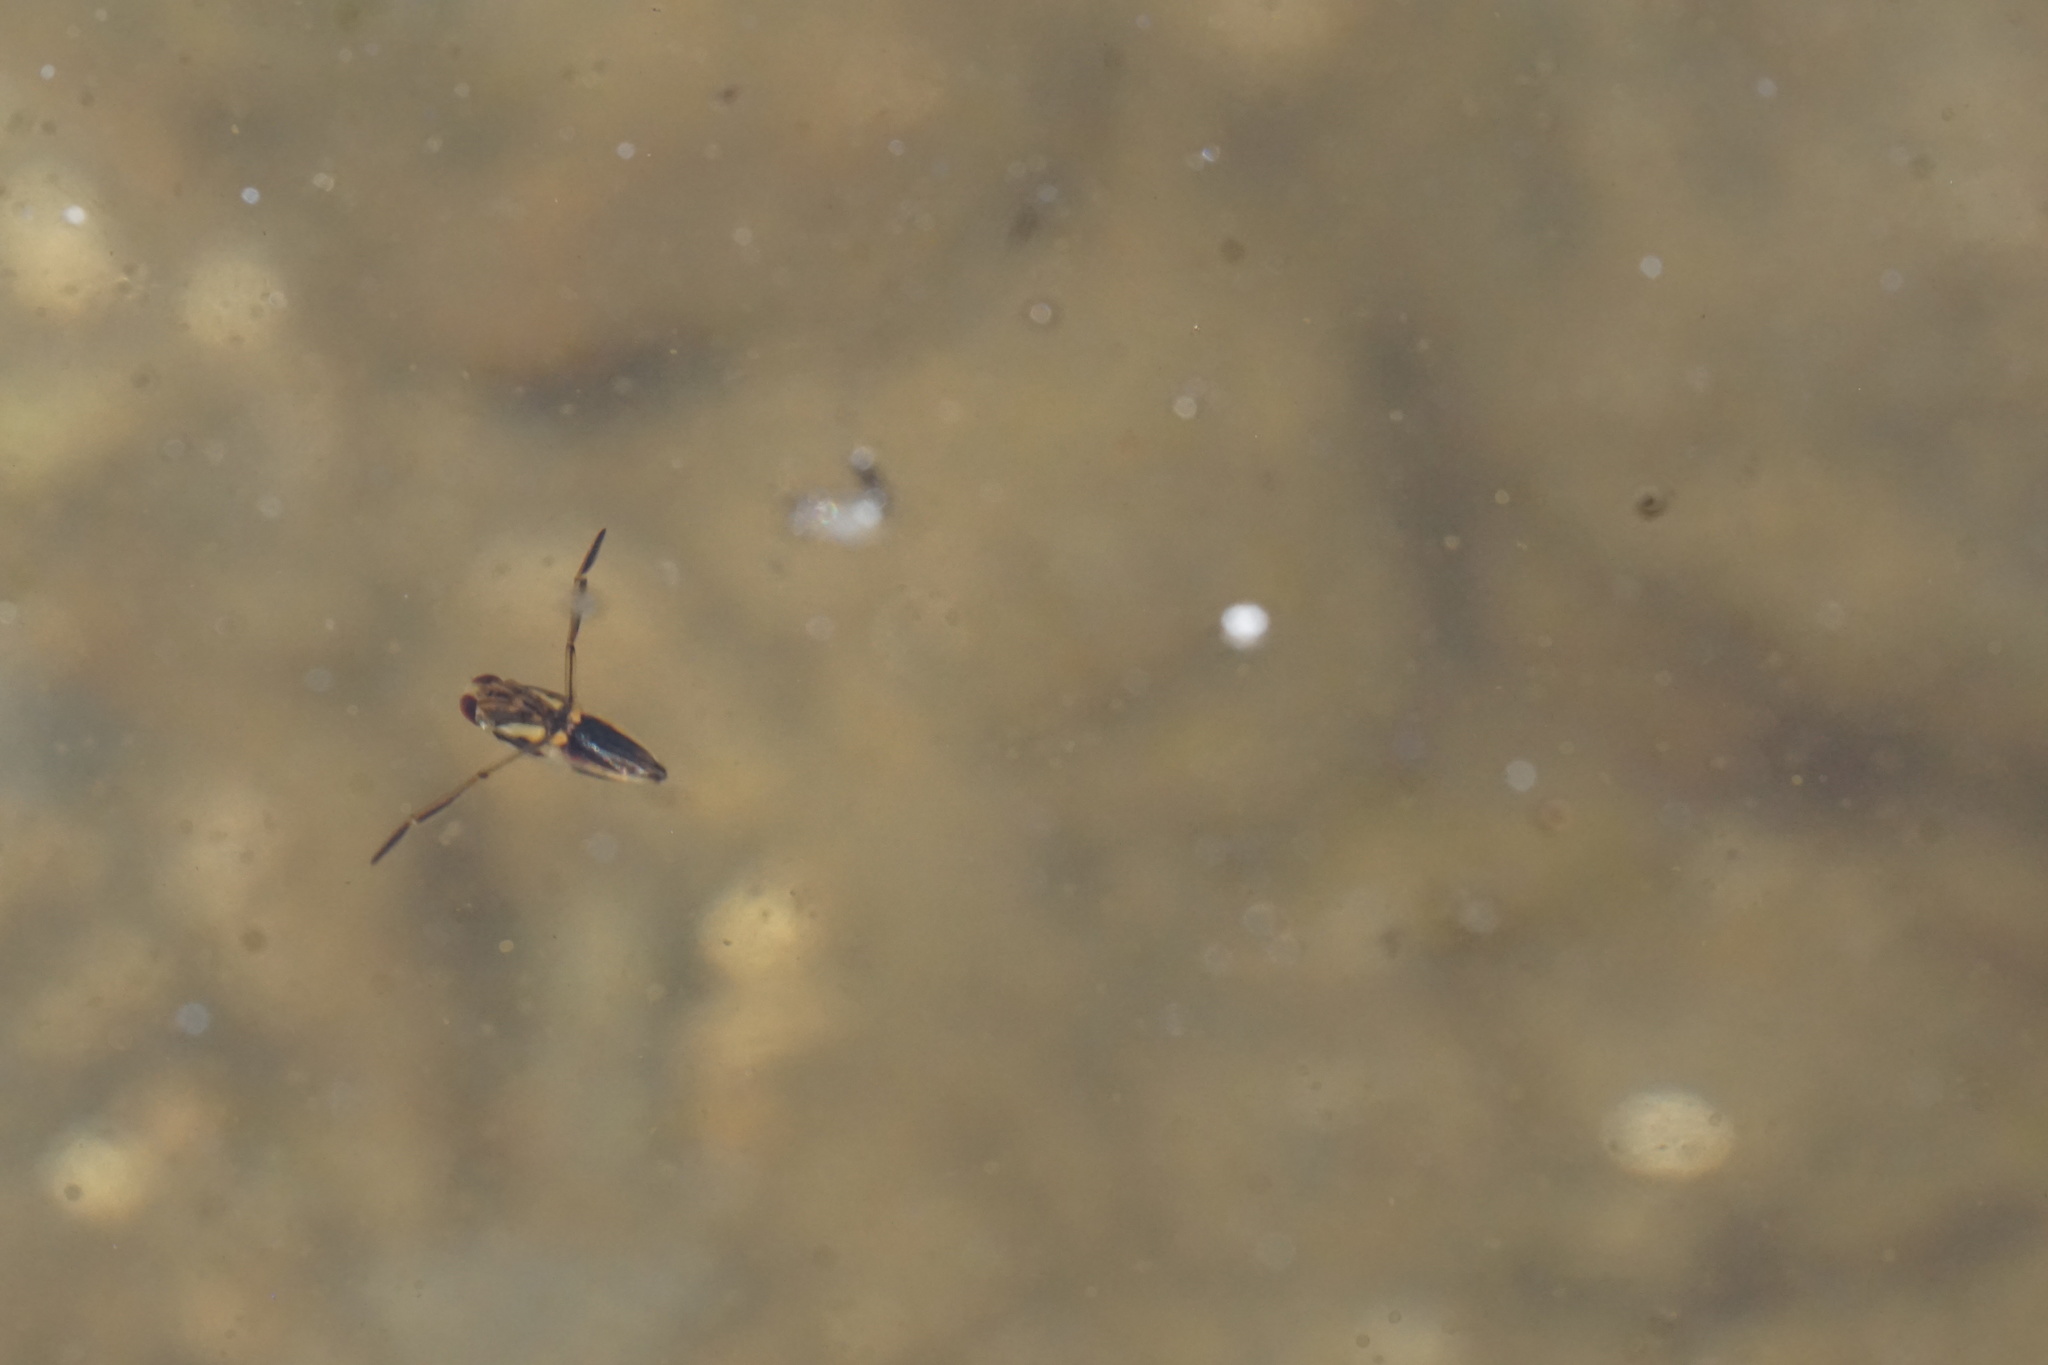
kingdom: Animalia
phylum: Arthropoda
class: Insecta
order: Hemiptera
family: Notonectidae
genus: Buenoa
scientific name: Buenoa
